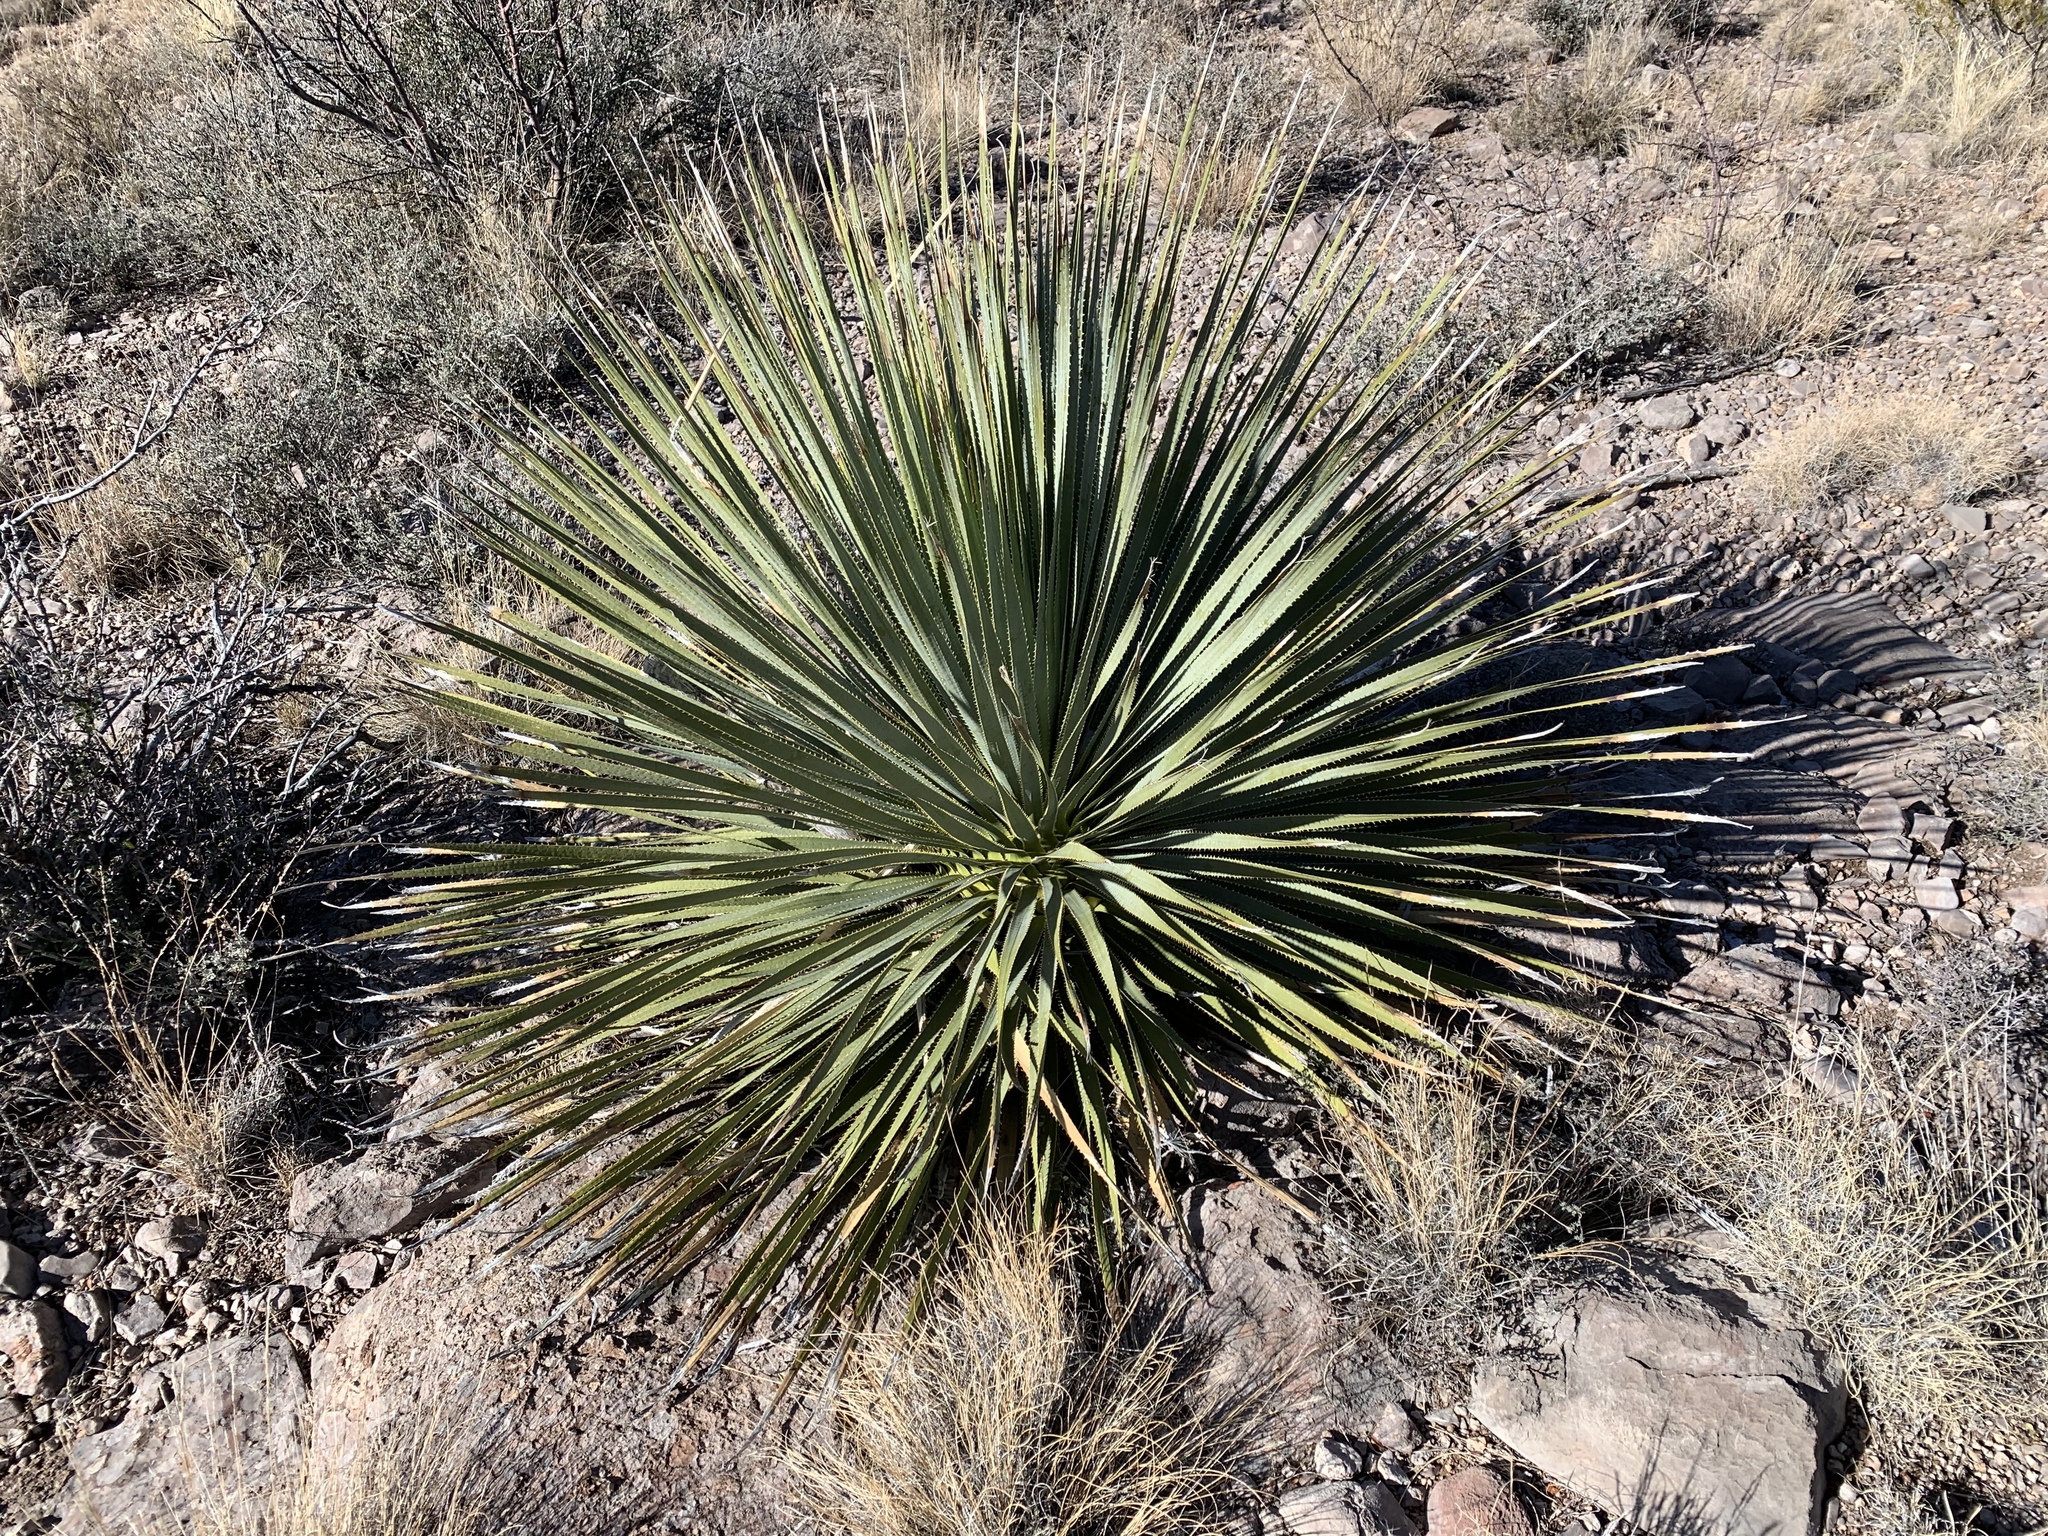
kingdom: Plantae
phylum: Tracheophyta
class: Liliopsida
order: Asparagales
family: Asparagaceae
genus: Dasylirion
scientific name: Dasylirion wheeleri
